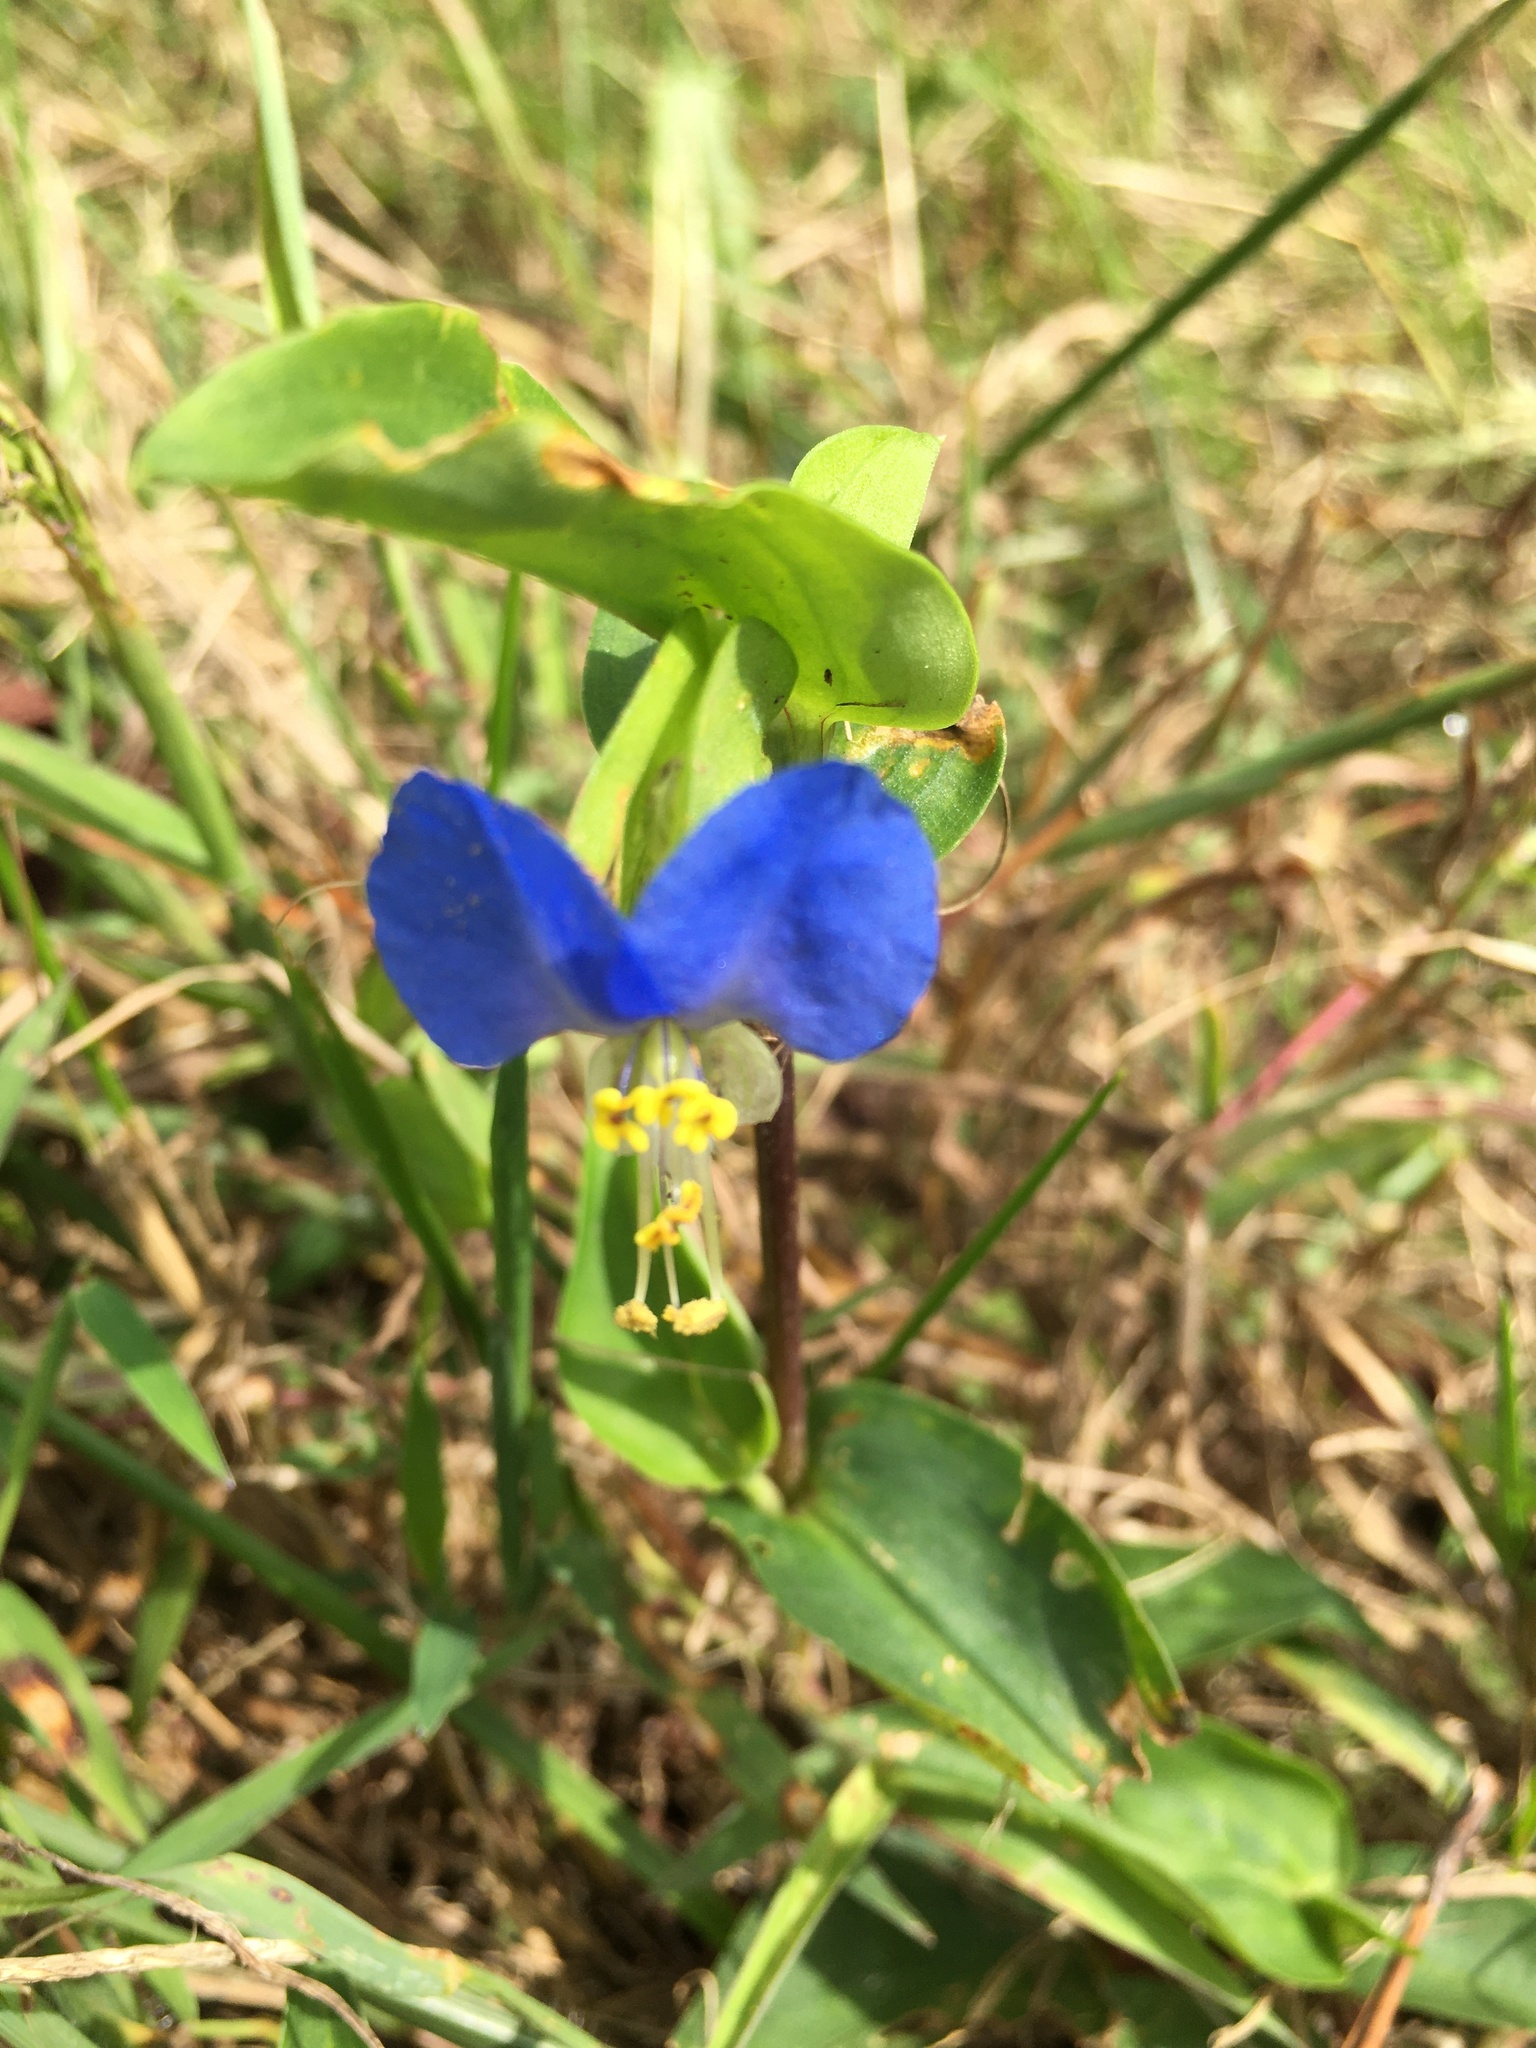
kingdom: Plantae
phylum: Tracheophyta
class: Liliopsida
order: Commelinales
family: Commelinaceae
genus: Commelina
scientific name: Commelina communis
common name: Asiatic dayflower
